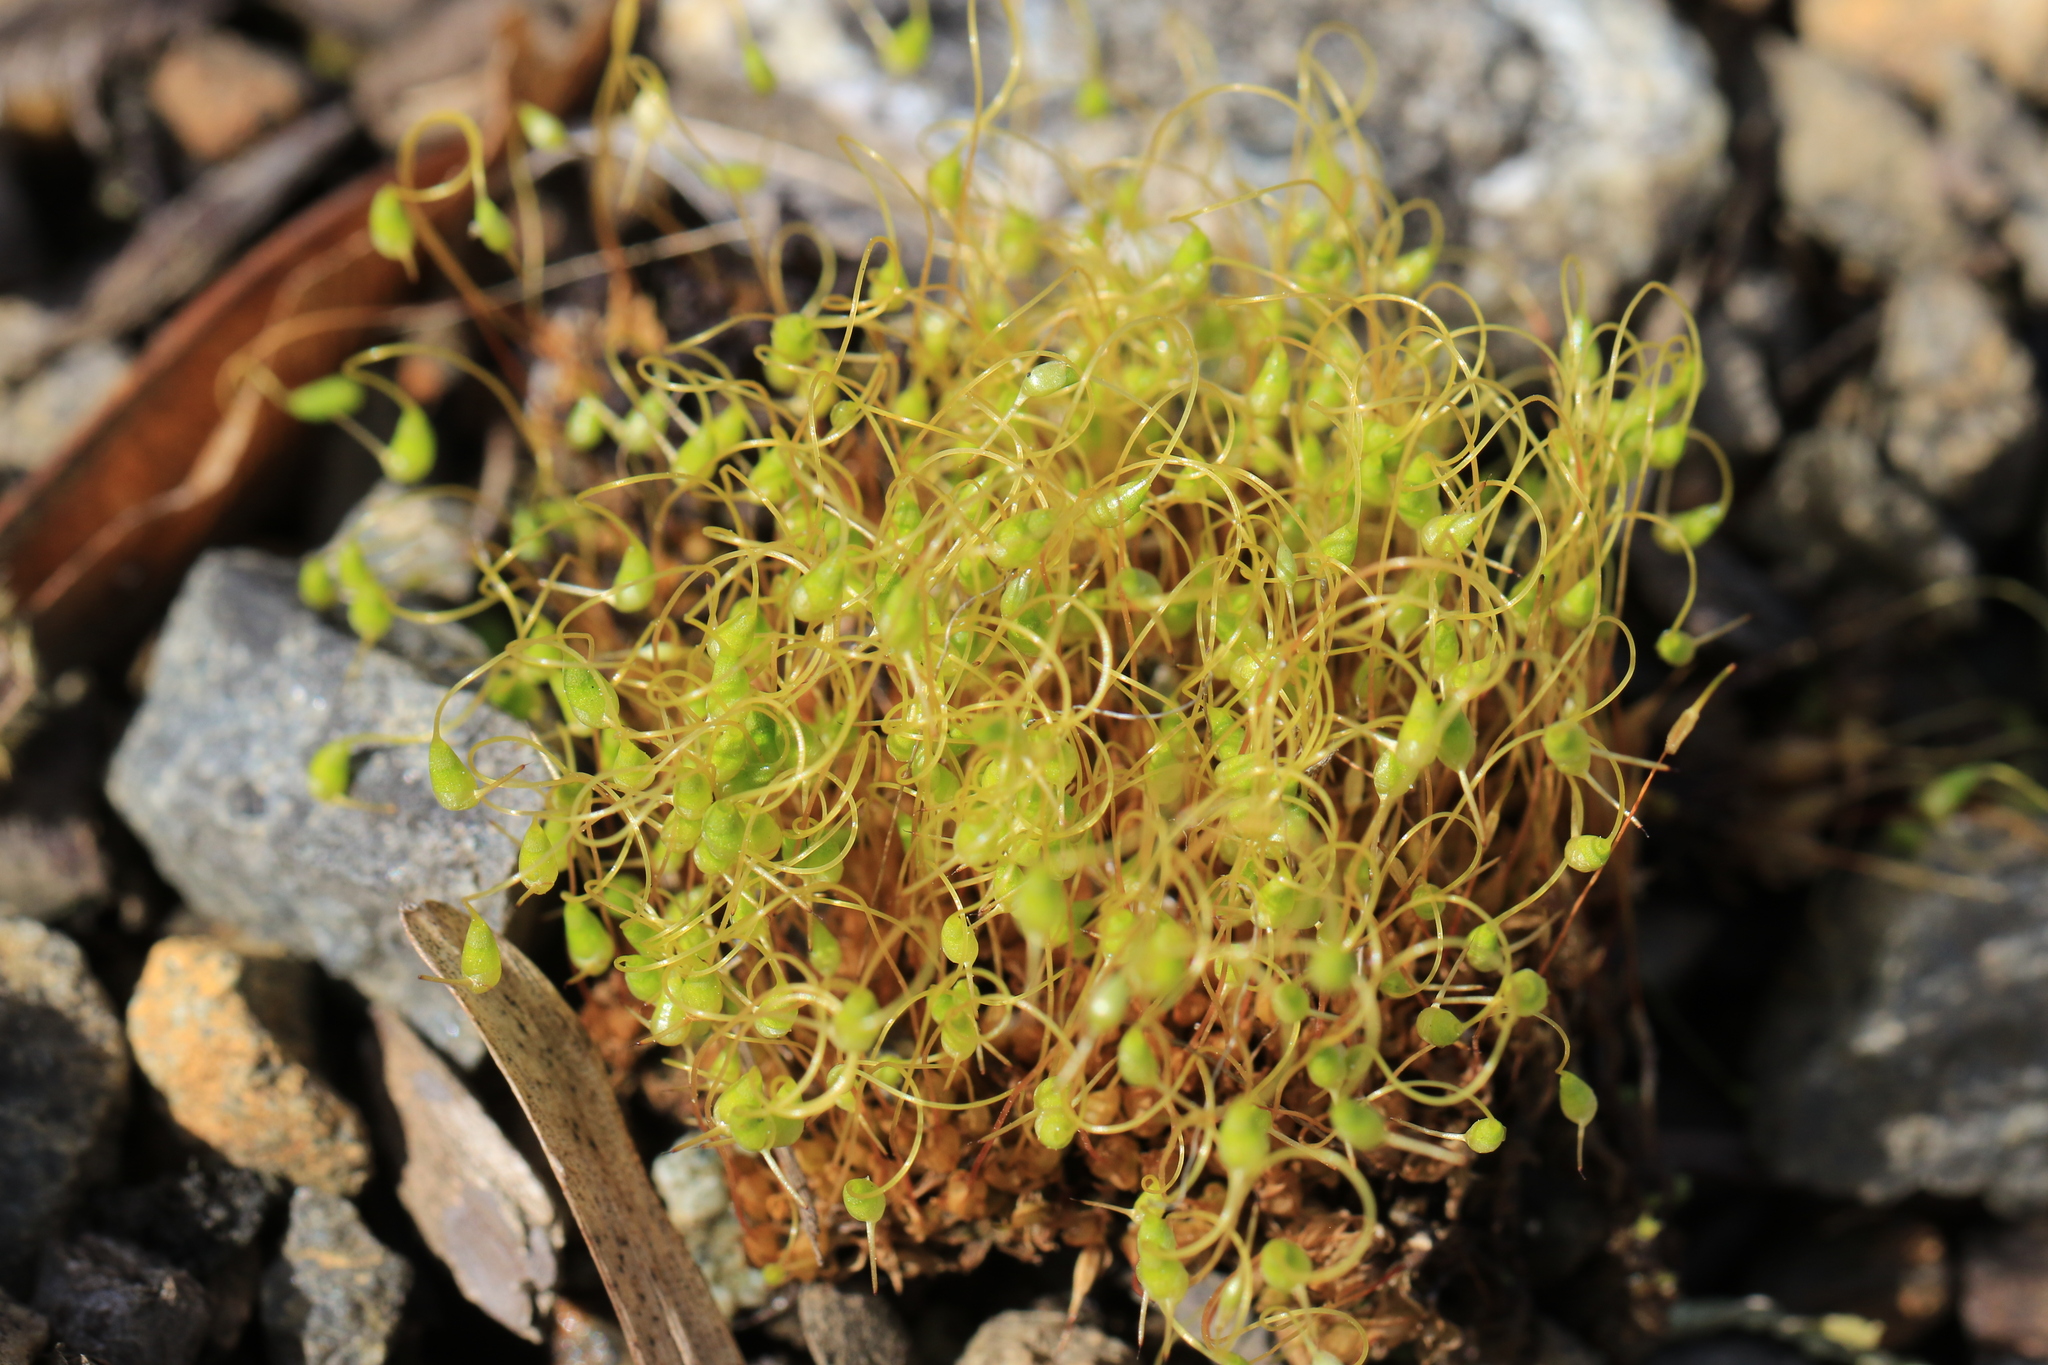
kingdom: Plantae
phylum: Bryophyta
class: Bryopsida
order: Funariales
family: Funariaceae
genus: Funaria
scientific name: Funaria hygrometrica
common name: Common cord moss
